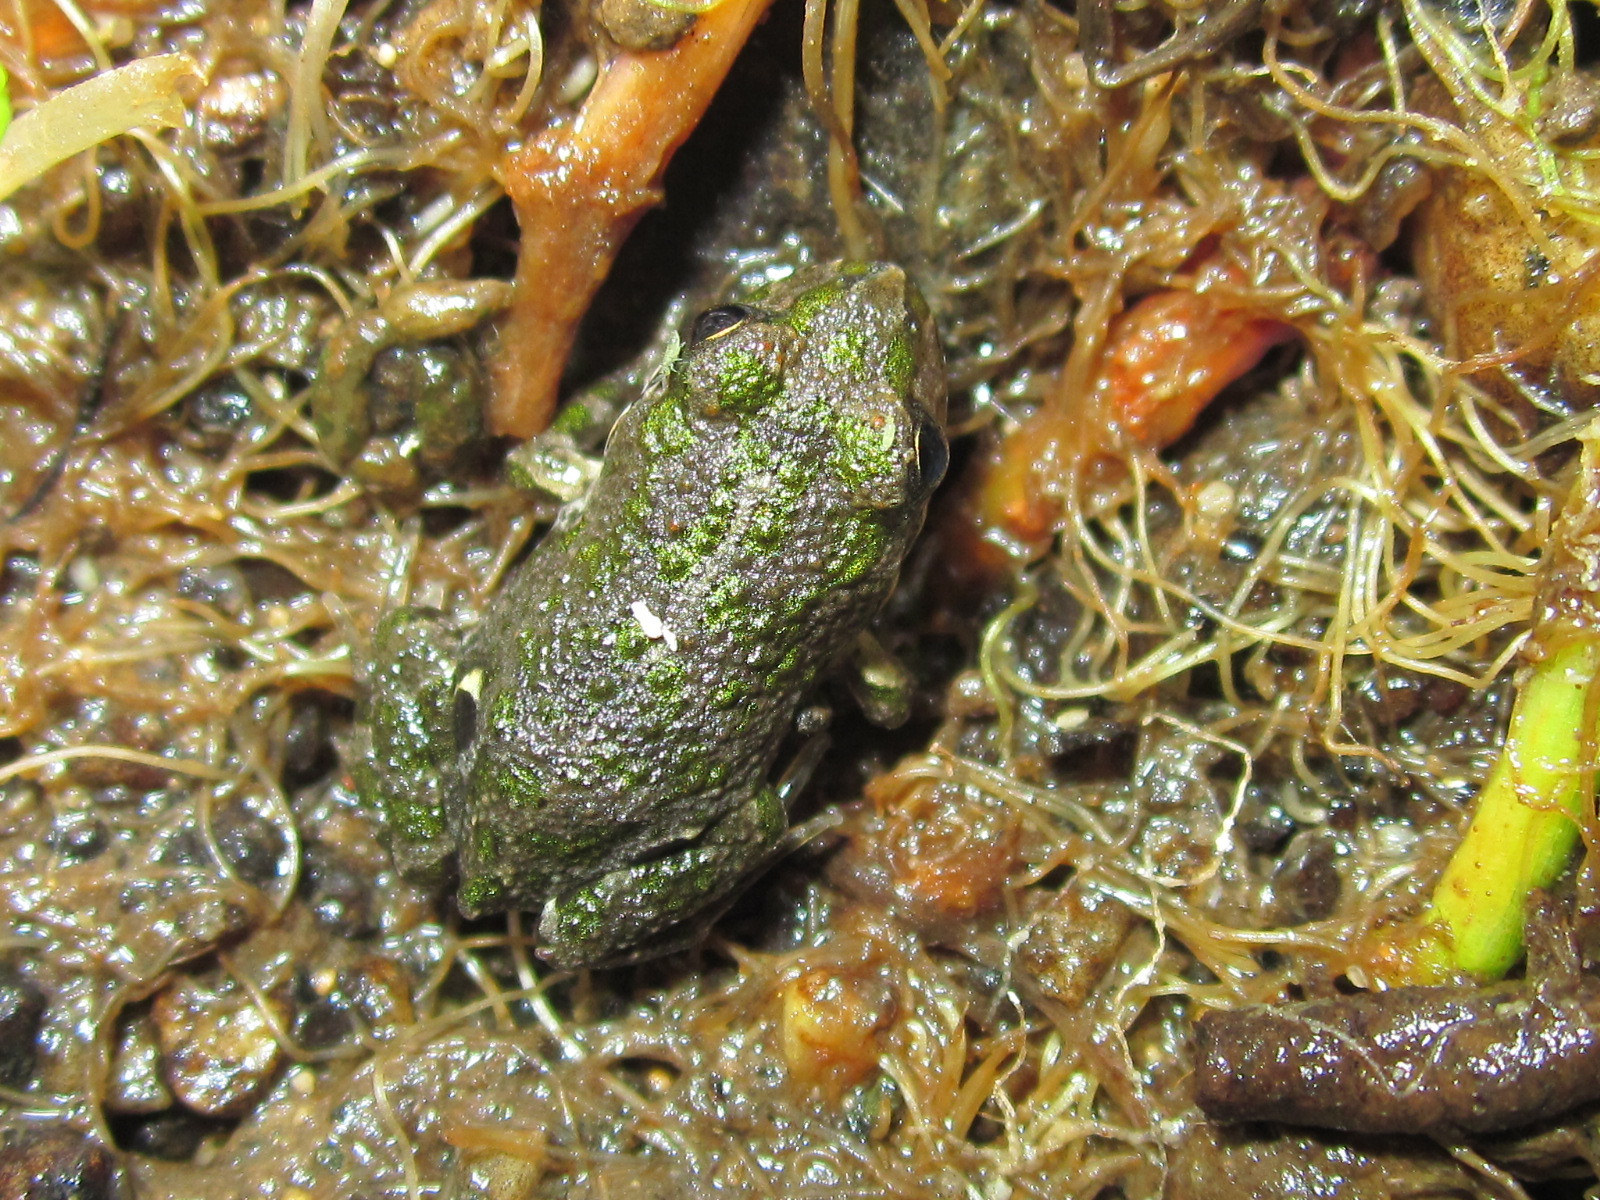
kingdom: Animalia
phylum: Chordata
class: Amphibia
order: Anura
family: Leptodactylidae
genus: Pleurodema
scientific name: Pleurodema thaul
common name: Chile four-eyed frog
